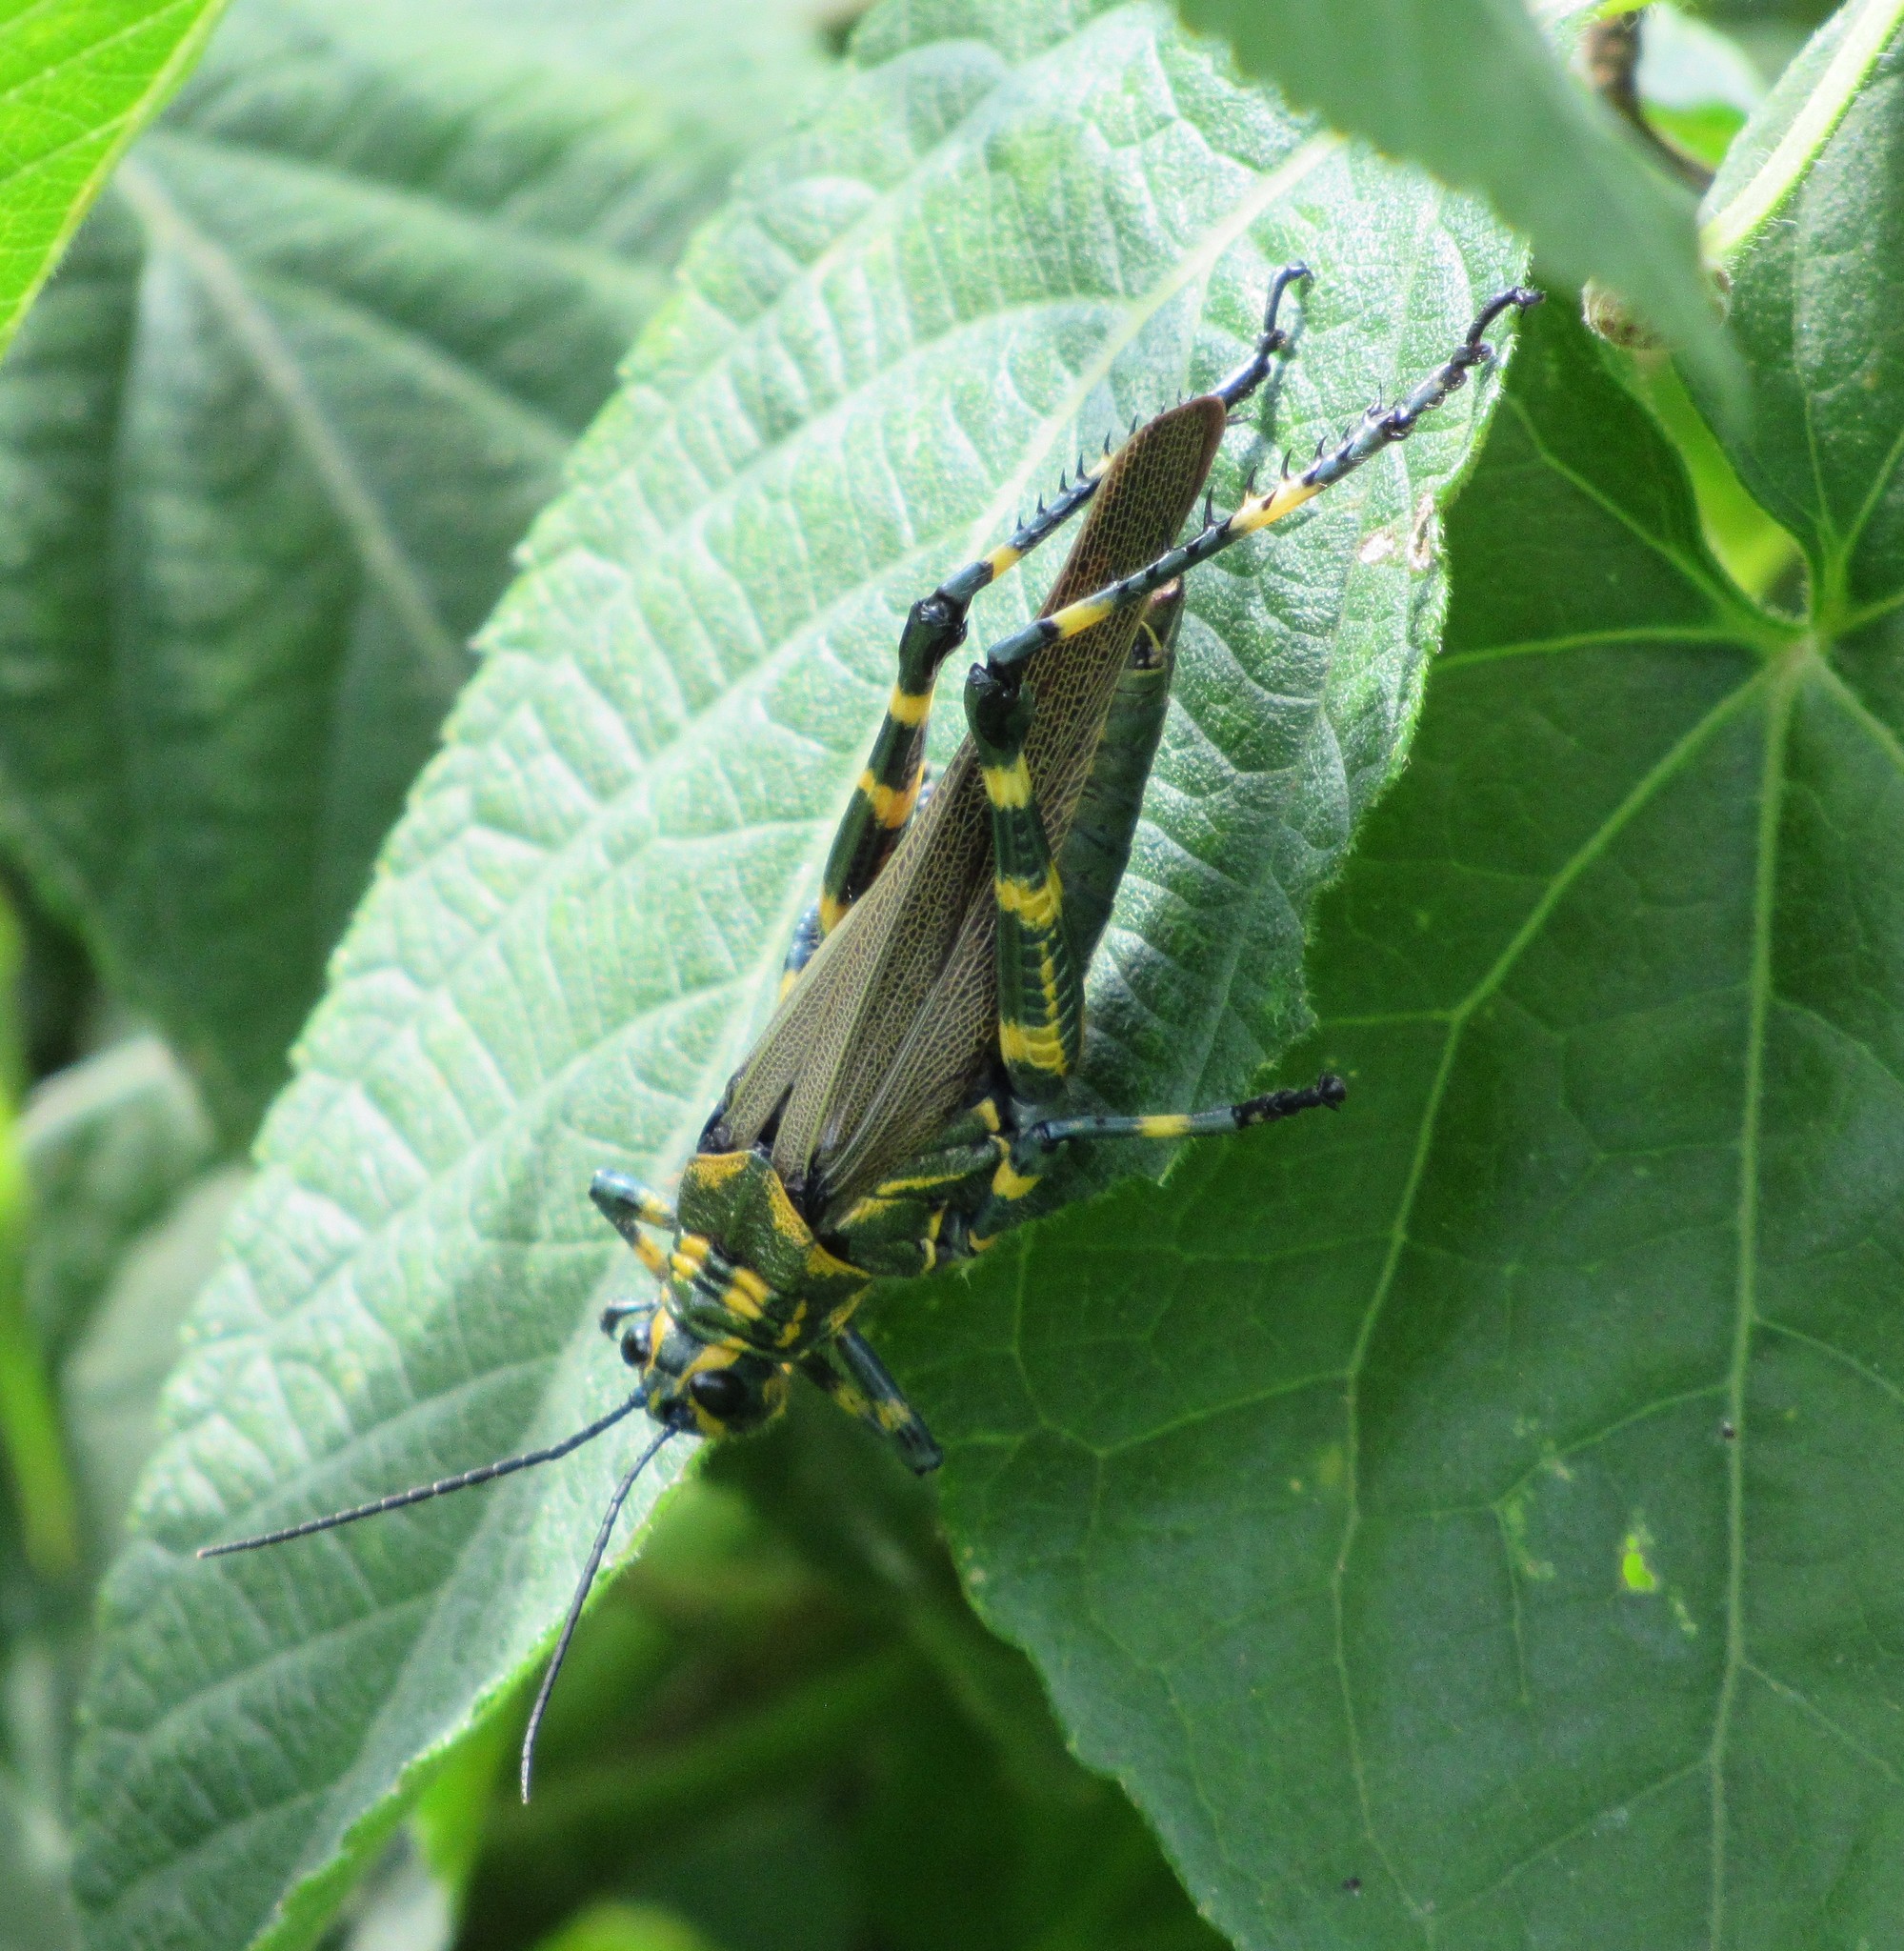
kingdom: Animalia
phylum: Arthropoda
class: Insecta
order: Orthoptera
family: Romaleidae
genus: Chromacris
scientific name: Chromacris speciosa
